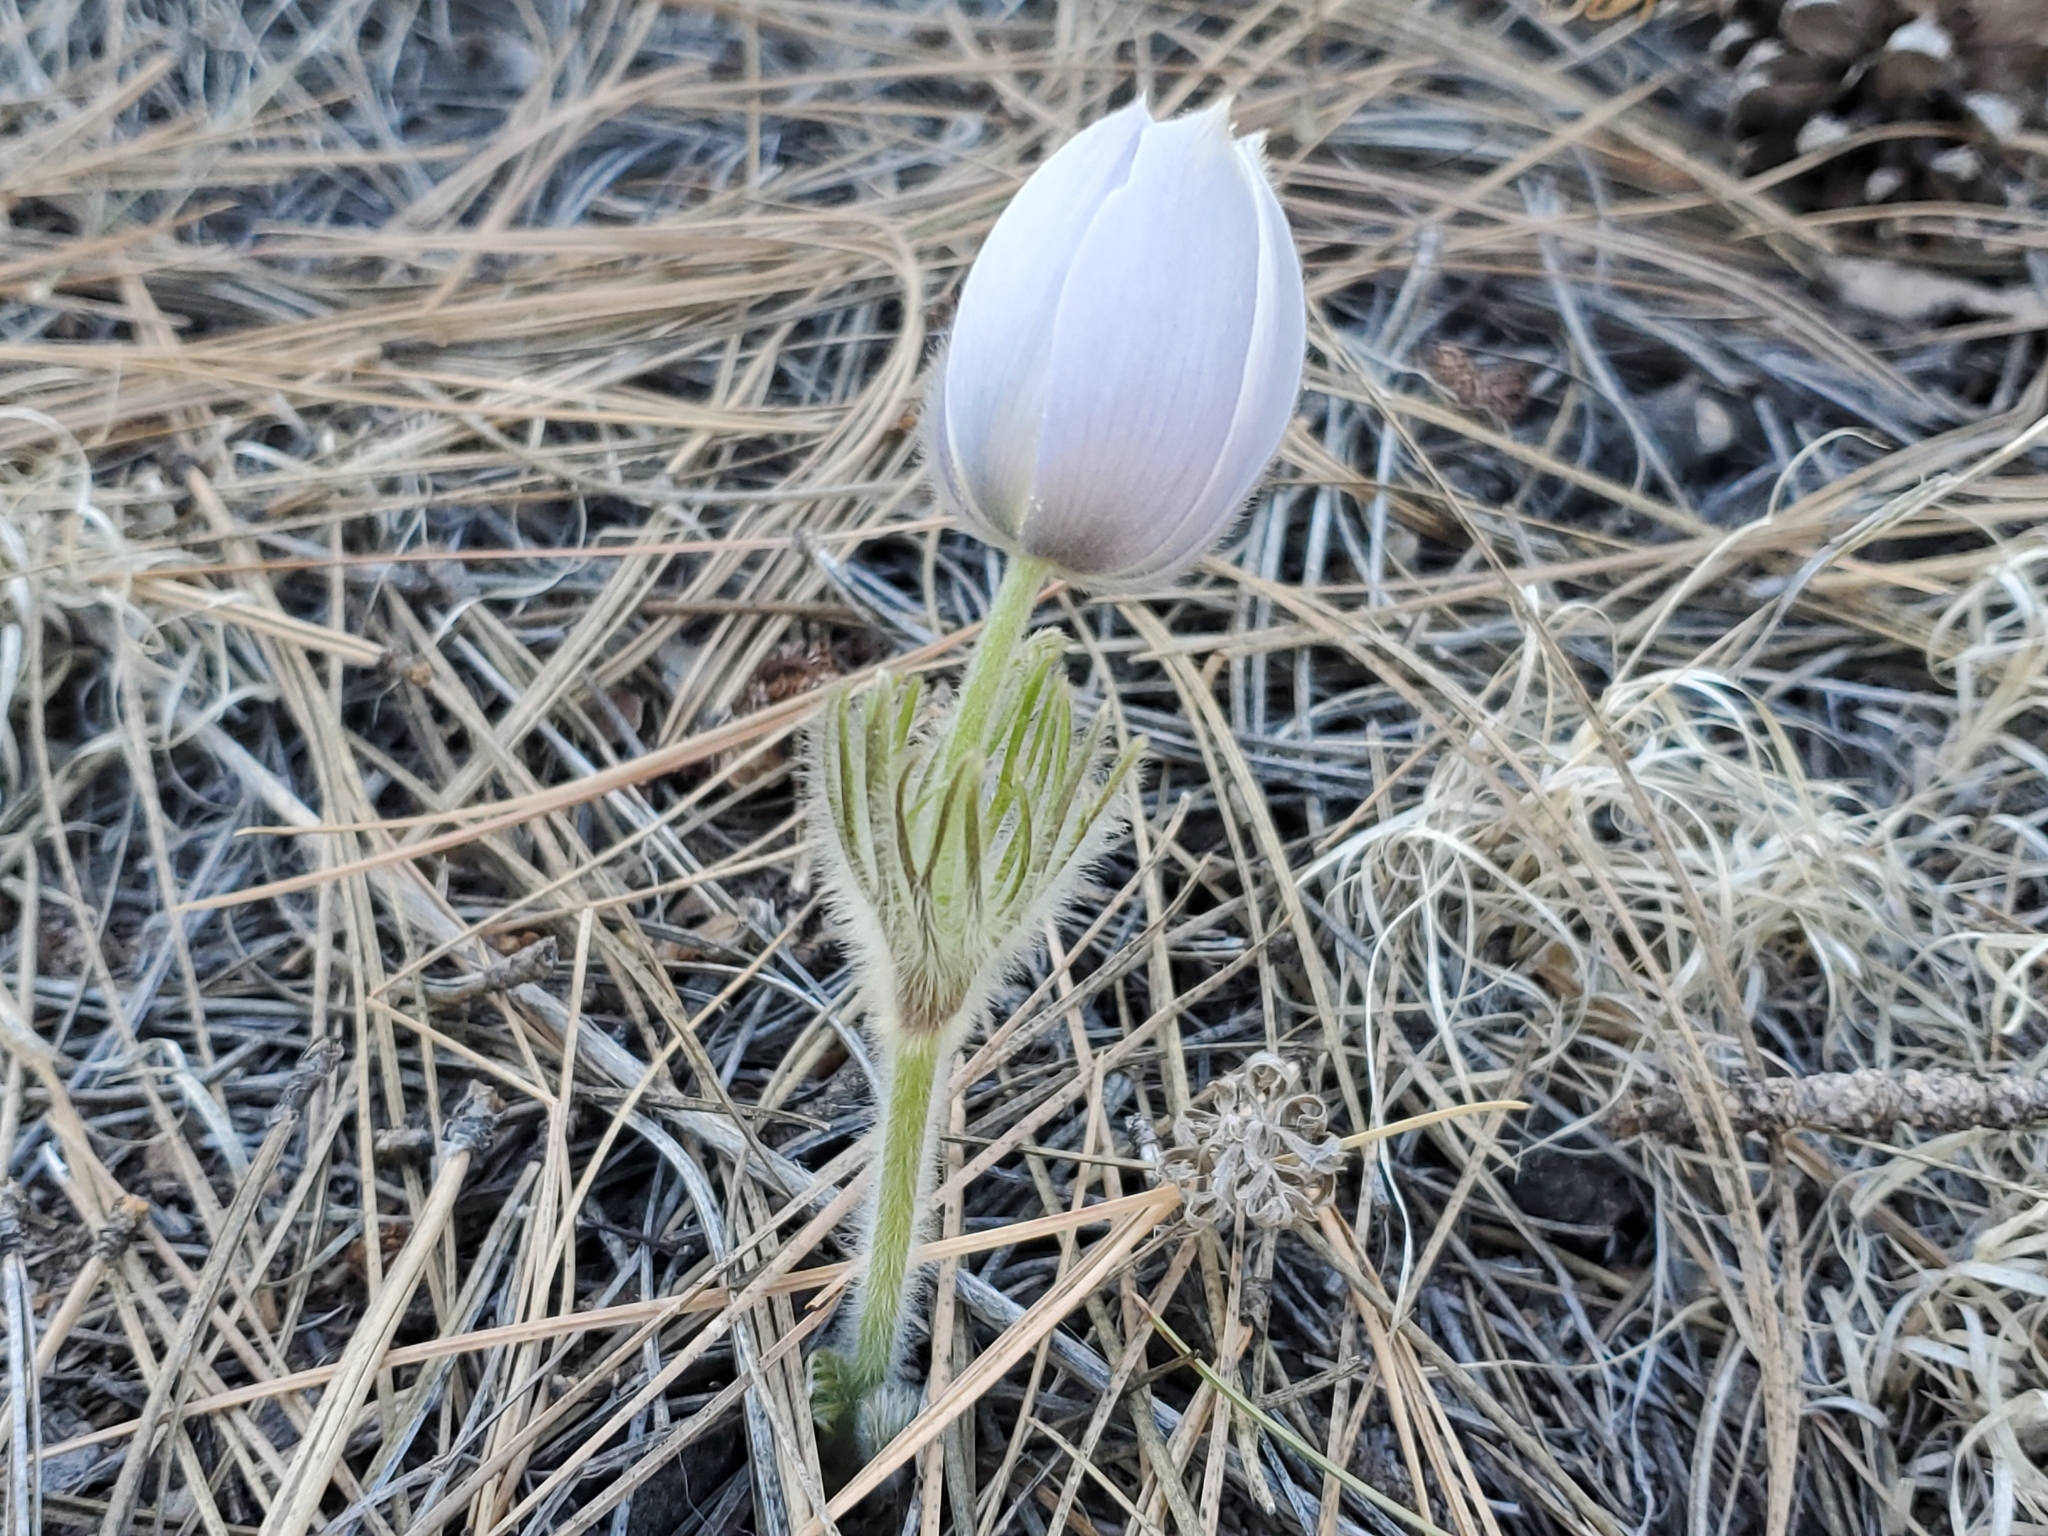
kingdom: Plantae
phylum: Tracheophyta
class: Magnoliopsida
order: Ranunculales
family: Ranunculaceae
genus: Pulsatilla
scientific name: Pulsatilla nuttalliana
